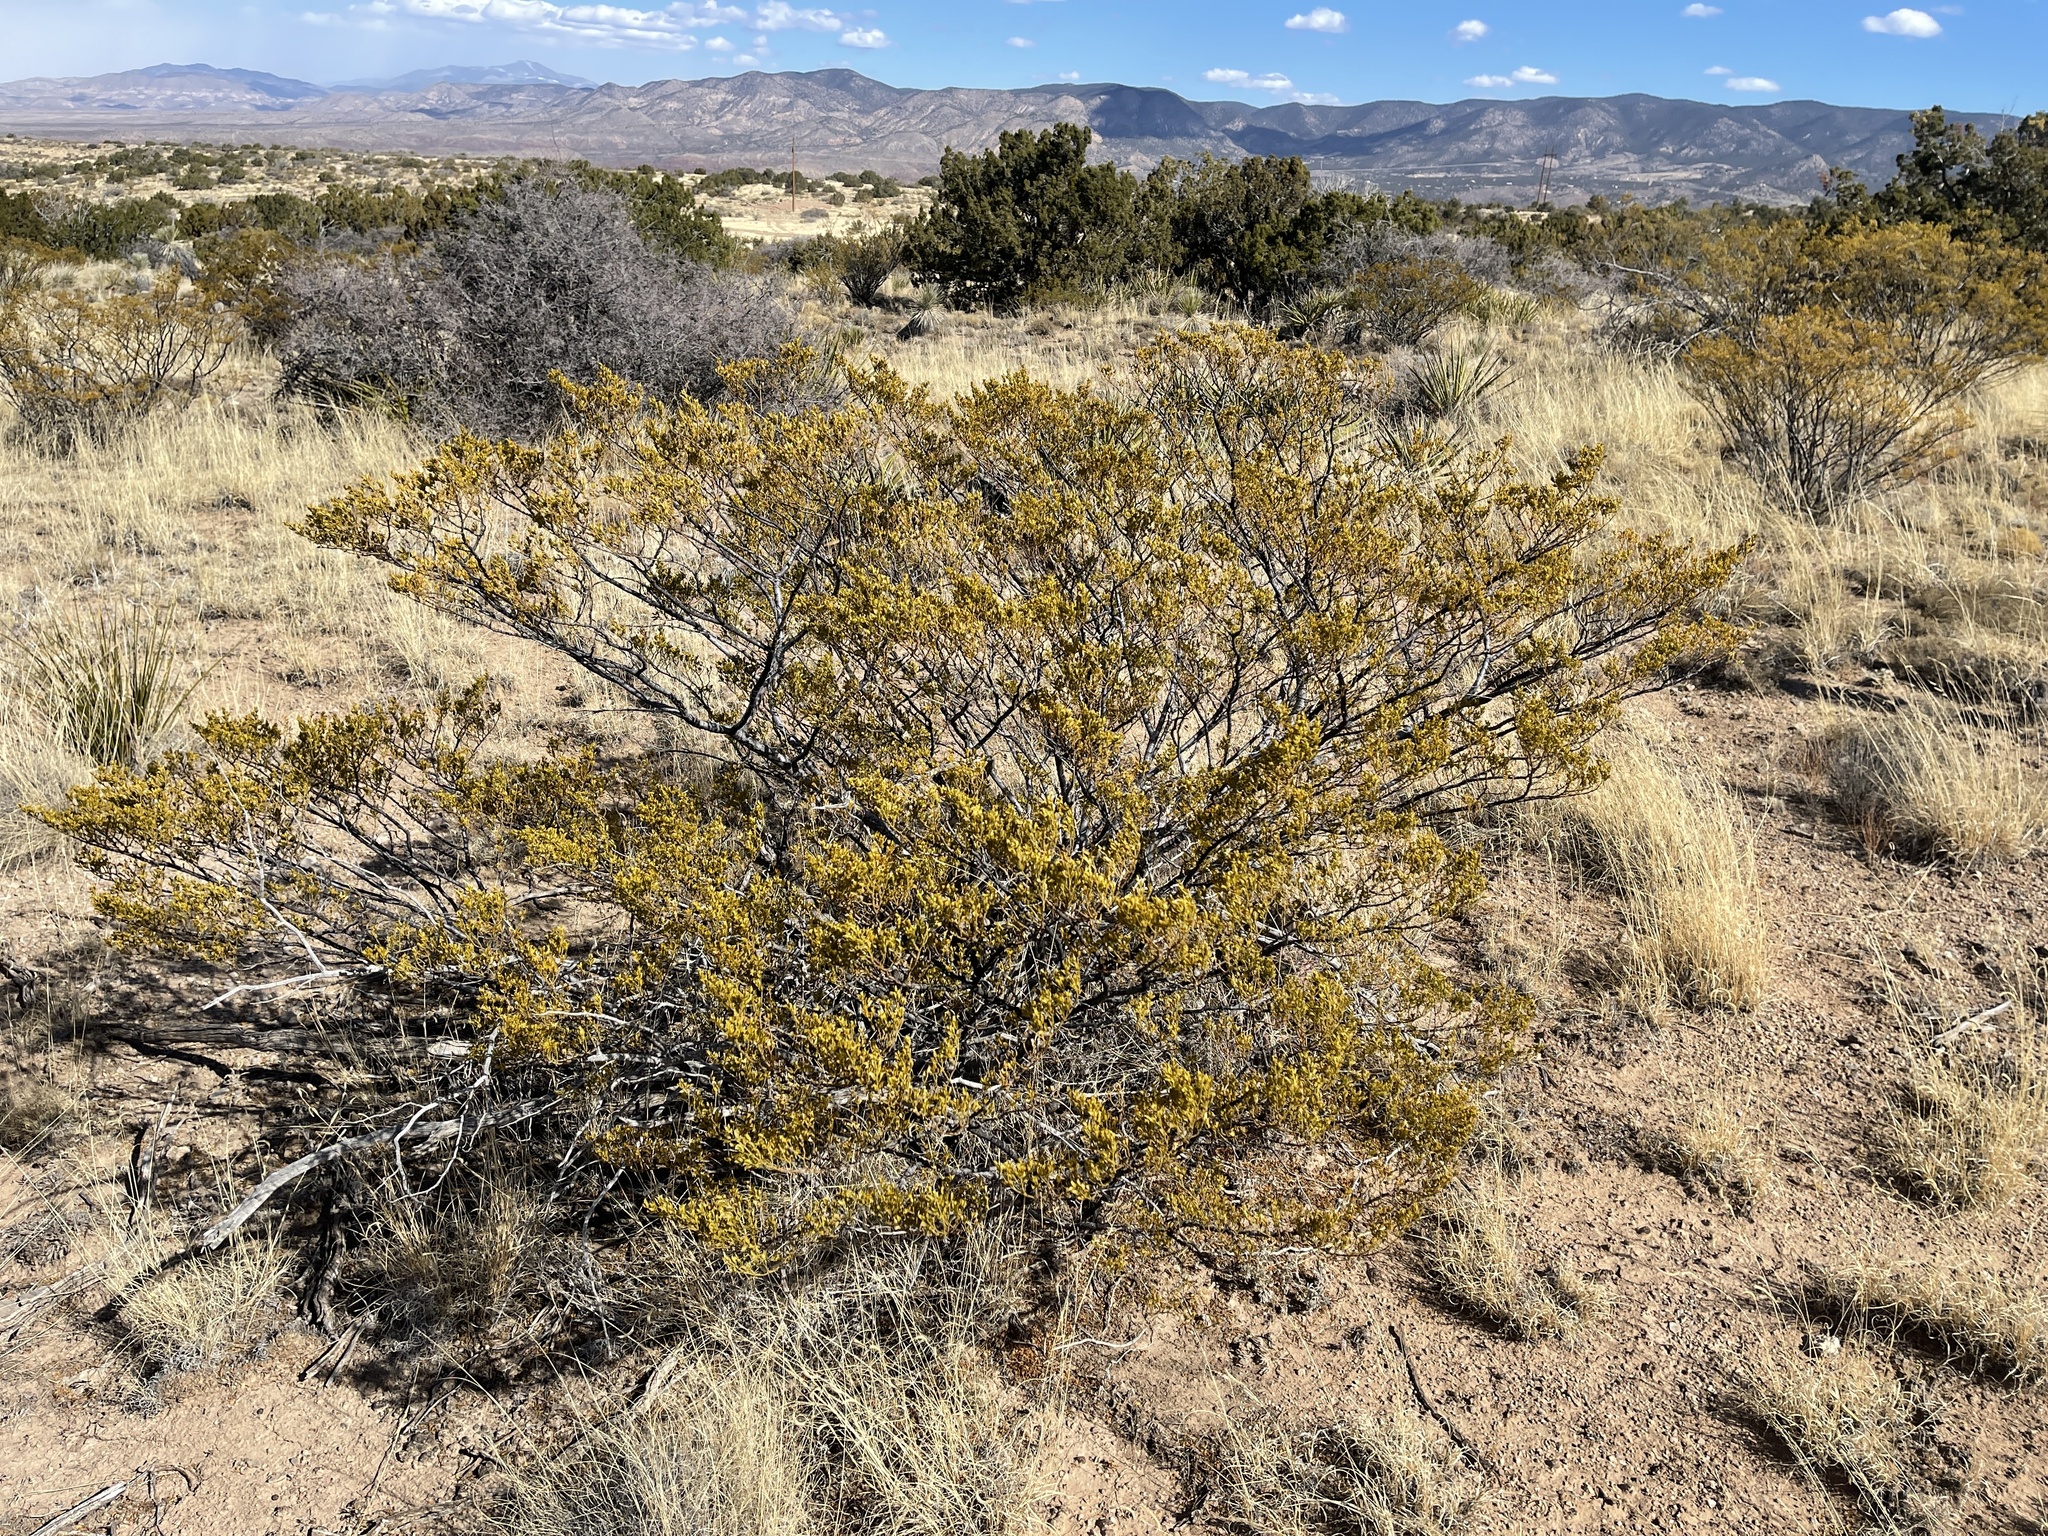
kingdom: Plantae
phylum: Tracheophyta
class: Magnoliopsida
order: Zygophyllales
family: Zygophyllaceae
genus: Larrea
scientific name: Larrea tridentata
